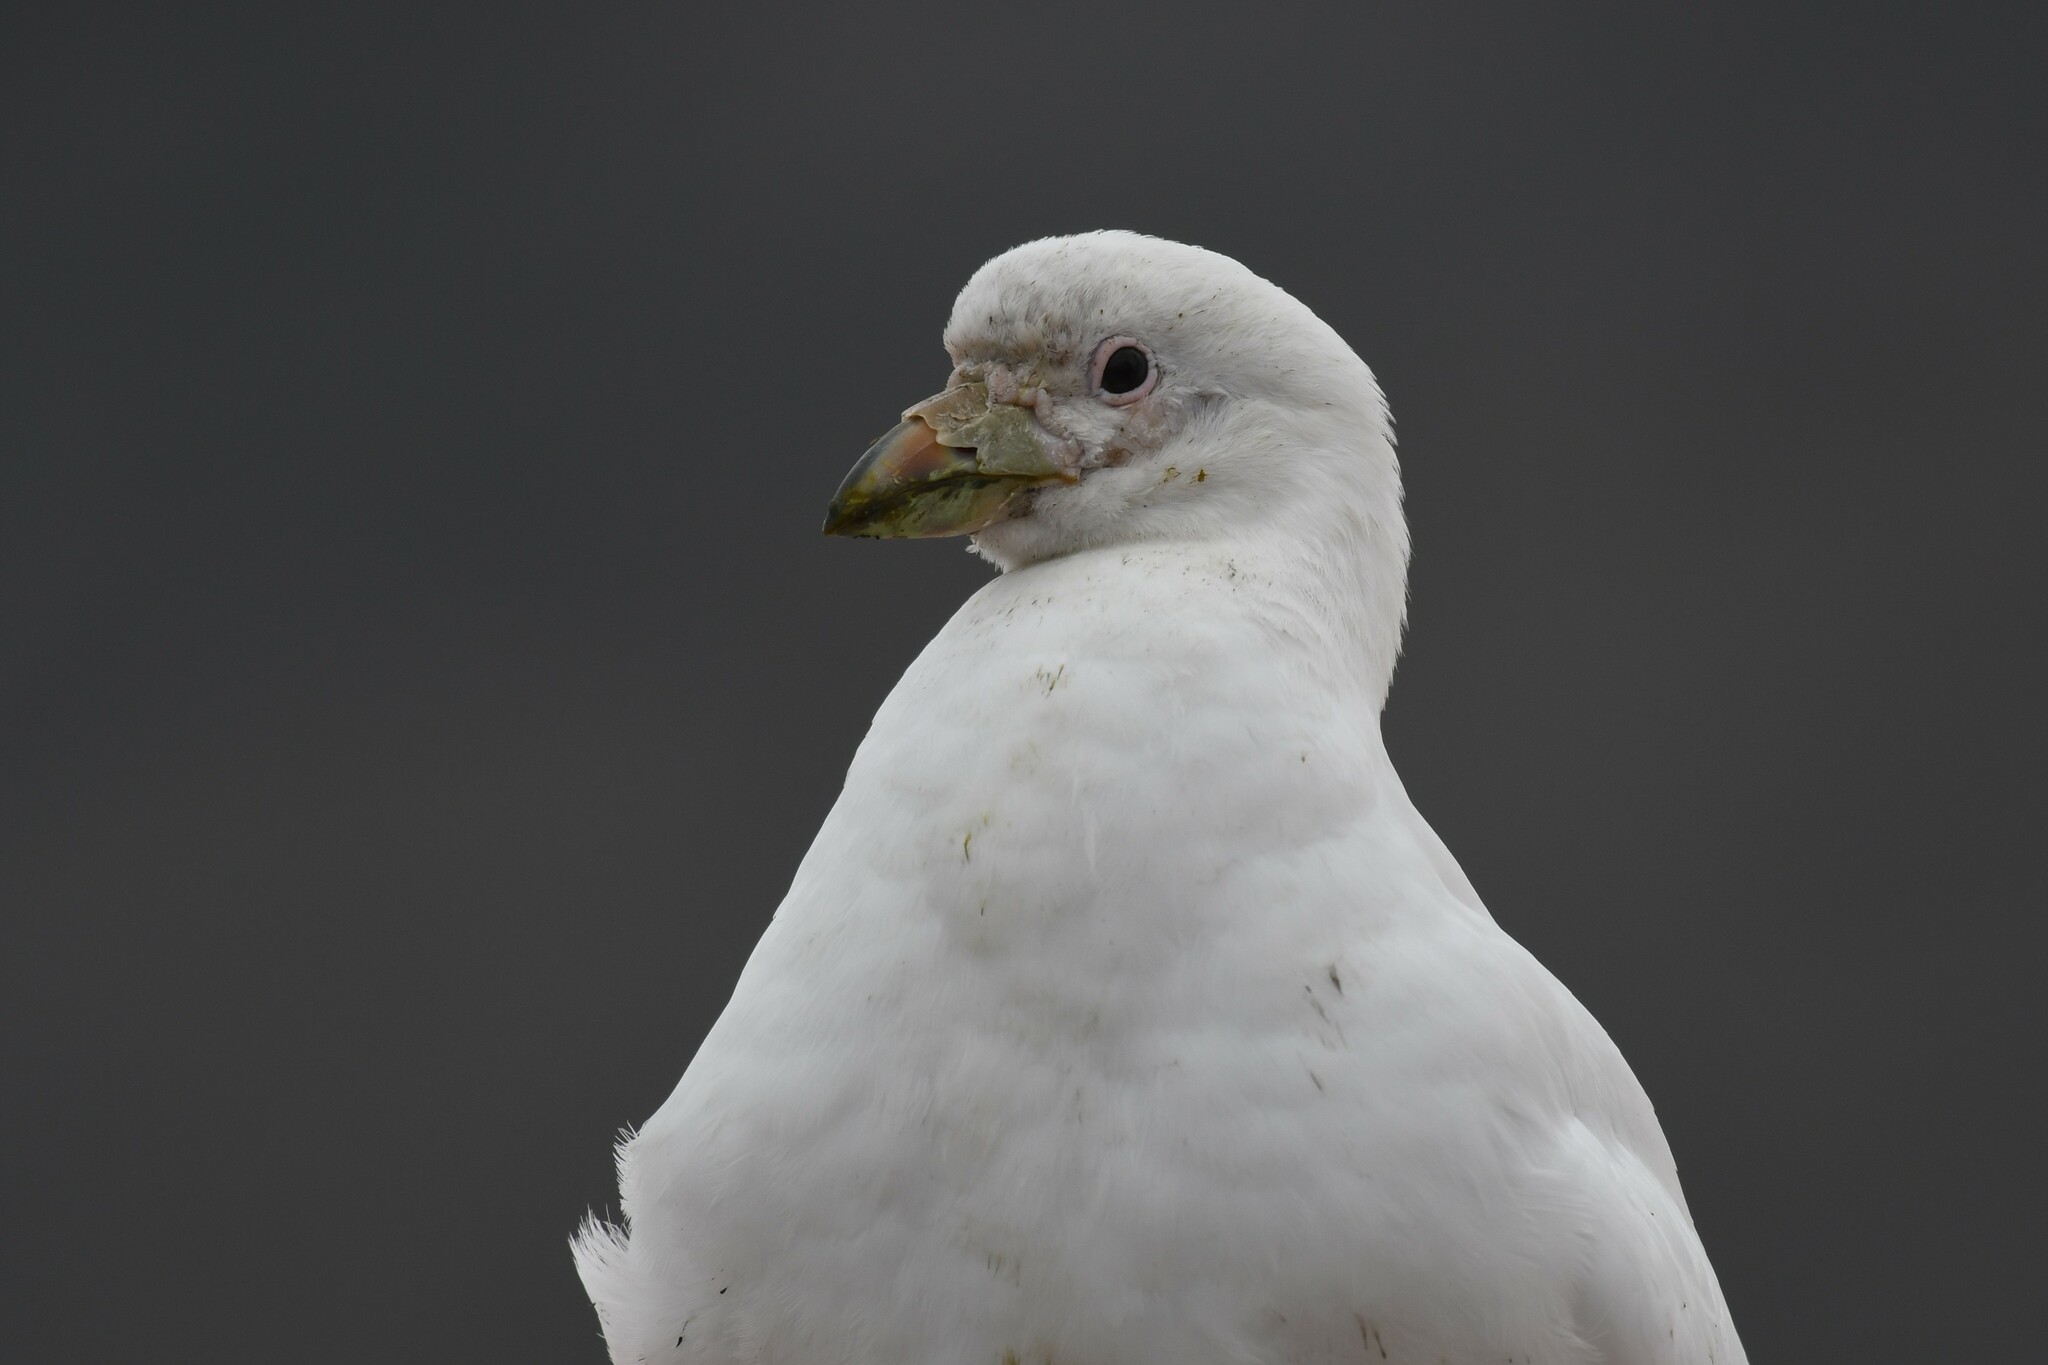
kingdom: Animalia
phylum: Chordata
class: Aves
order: Charadriiformes
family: Chionidae
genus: Chionis
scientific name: Chionis albus
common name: Snowy sheathbill
